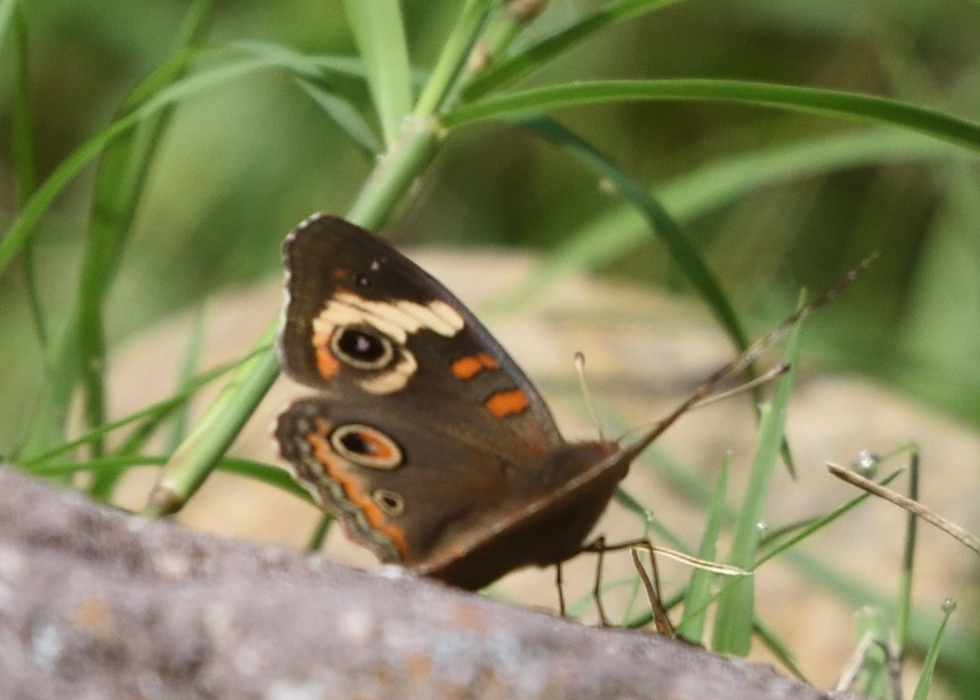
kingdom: Animalia
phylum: Arthropoda
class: Insecta
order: Lepidoptera
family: Nymphalidae
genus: Junonia
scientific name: Junonia grisea
